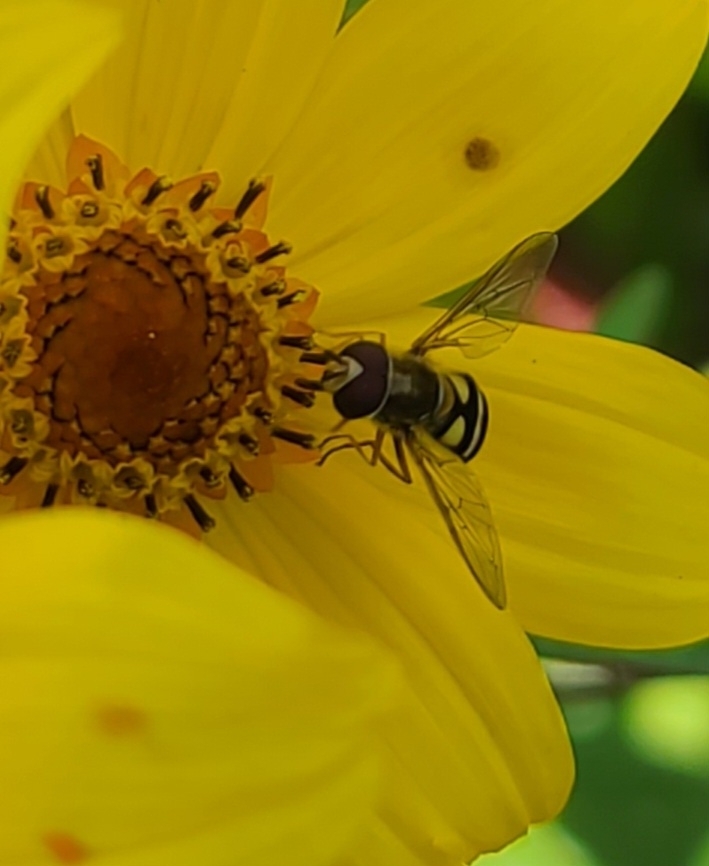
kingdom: Animalia
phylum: Arthropoda
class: Insecta
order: Diptera
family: Syrphidae
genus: Eupeodes
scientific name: Eupeodes fumipennis
